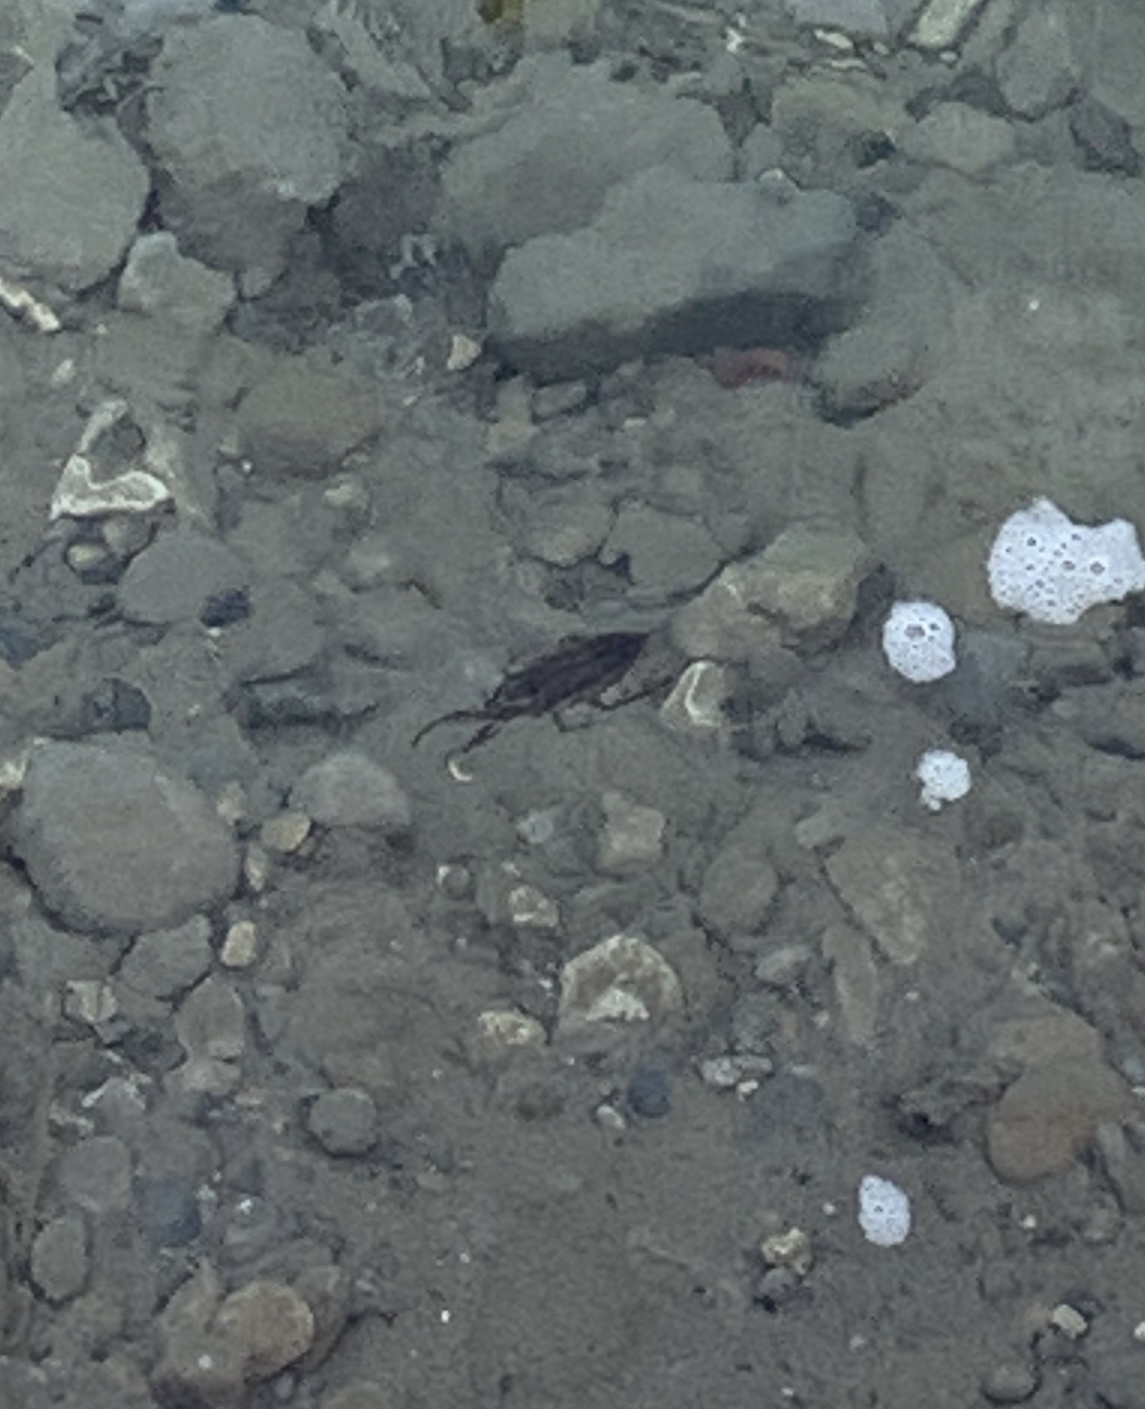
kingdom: Animalia
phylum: Arthropoda
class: Insecta
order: Hemiptera
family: Belostomatidae
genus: Lethocerus
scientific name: Lethocerus americanus
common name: Giant water bug
